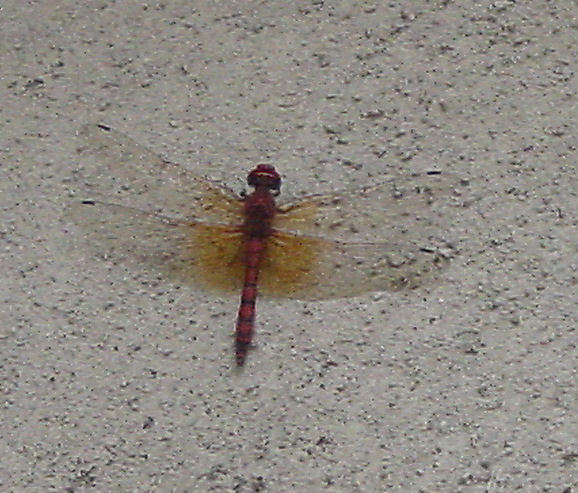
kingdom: Animalia
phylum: Arthropoda
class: Insecta
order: Odonata
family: Libellulidae
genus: Paltothemis
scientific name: Paltothemis lineatipes
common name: Red rock skimmer
